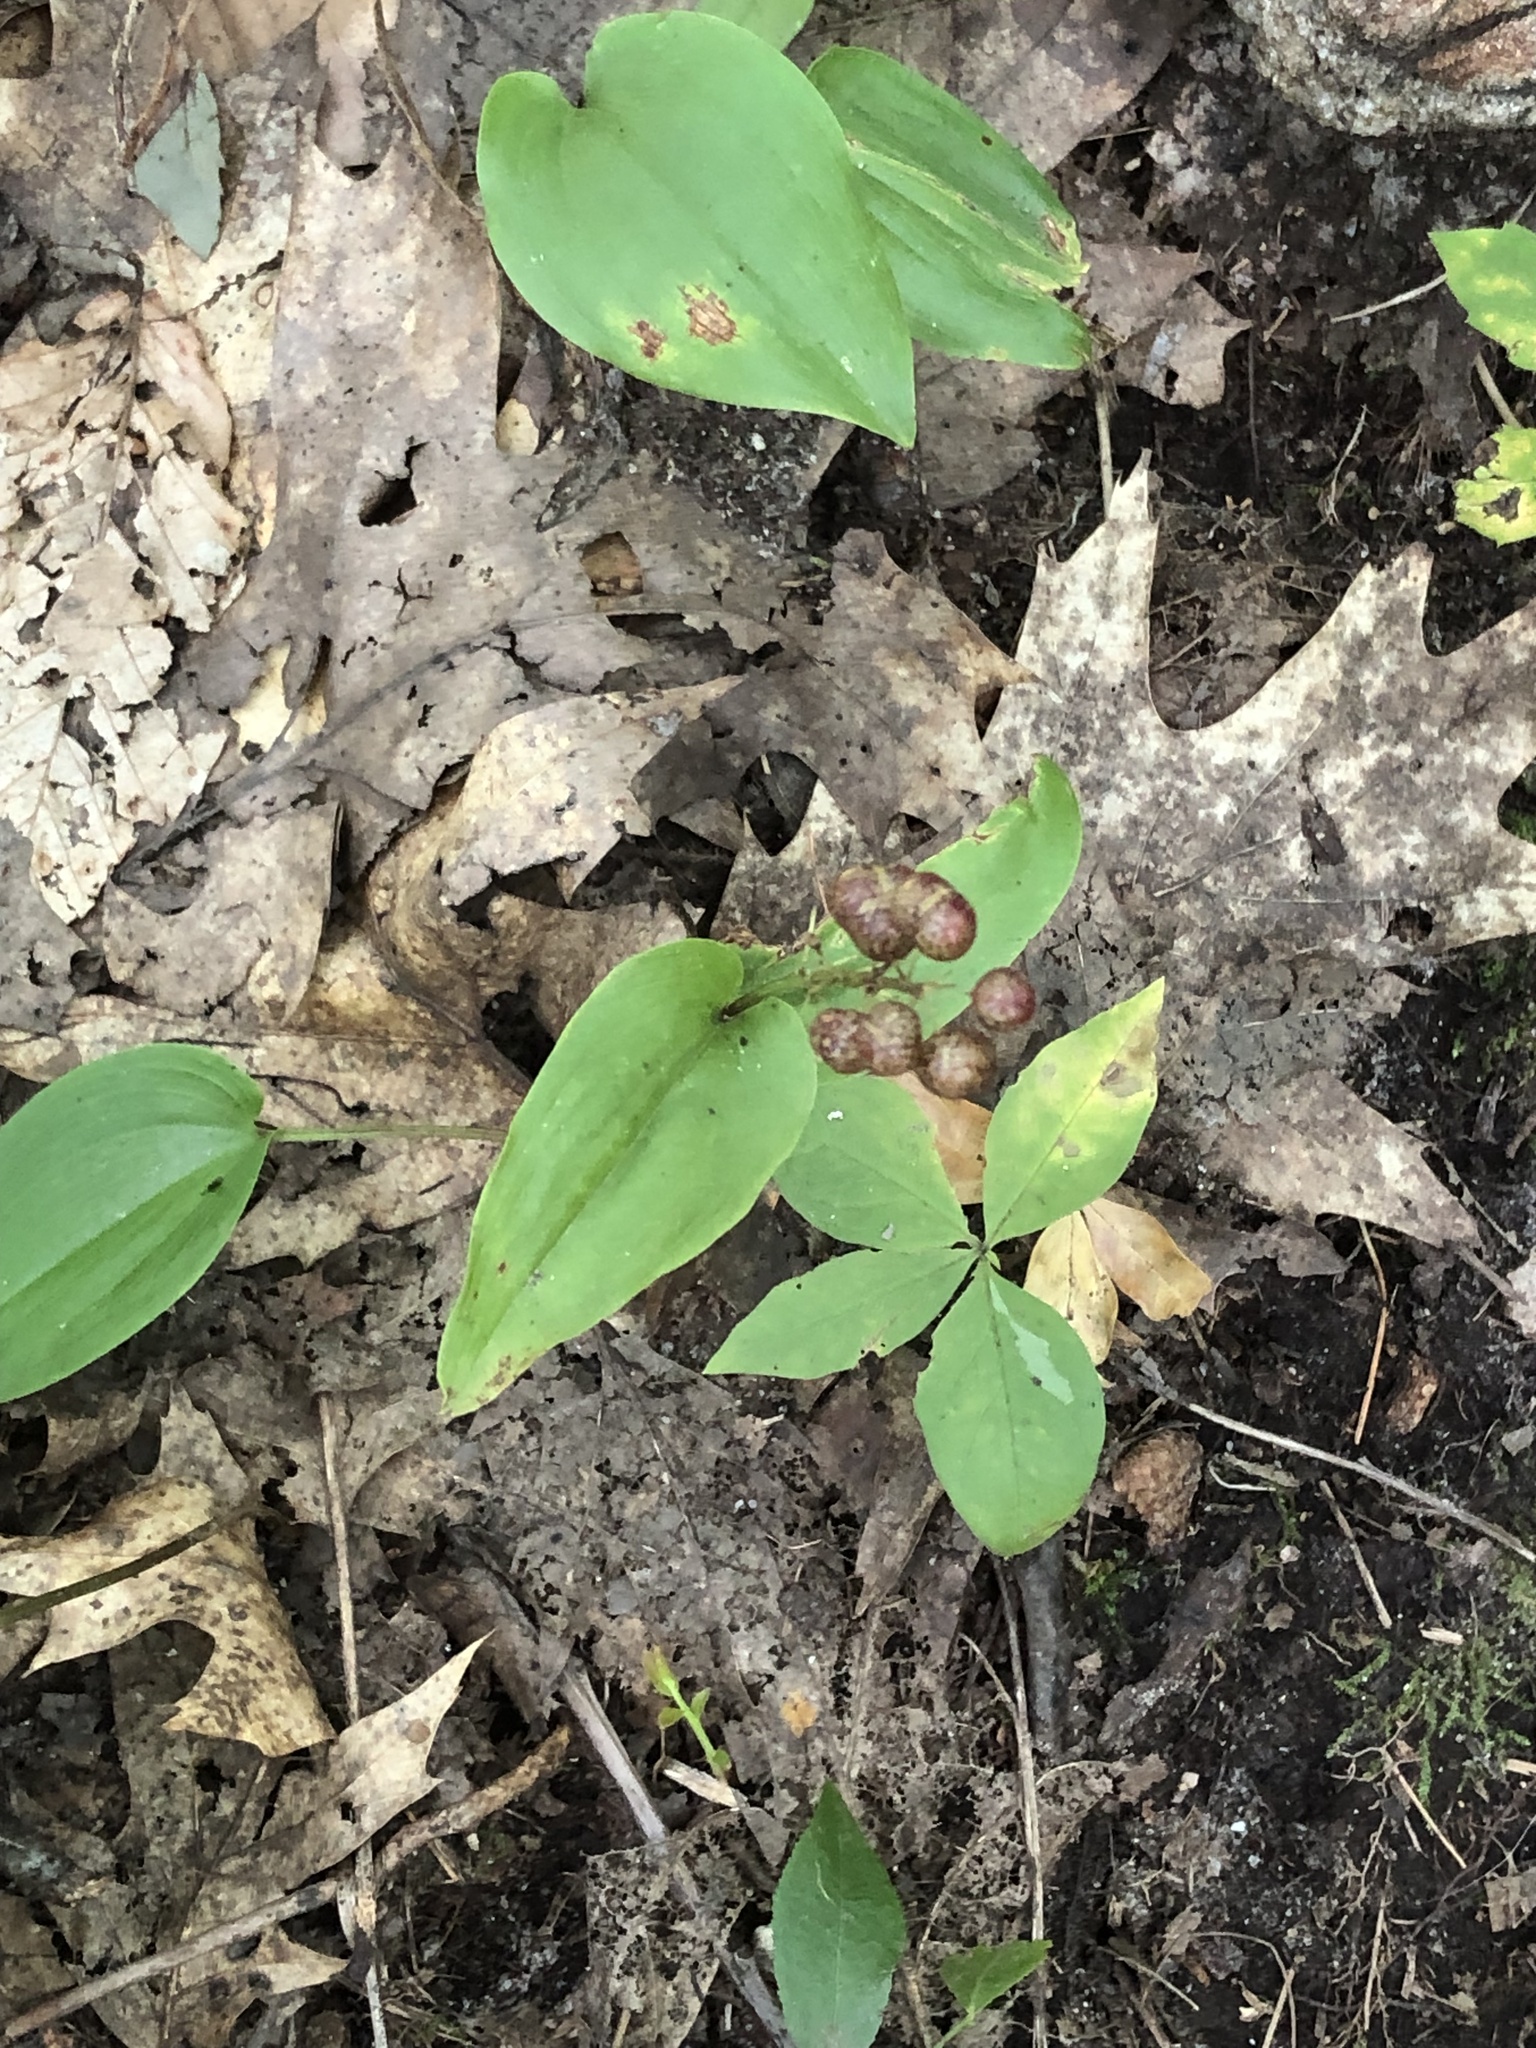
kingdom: Plantae
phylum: Tracheophyta
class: Liliopsida
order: Asparagales
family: Asparagaceae
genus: Maianthemum
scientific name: Maianthemum canadense
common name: False lily-of-the-valley
